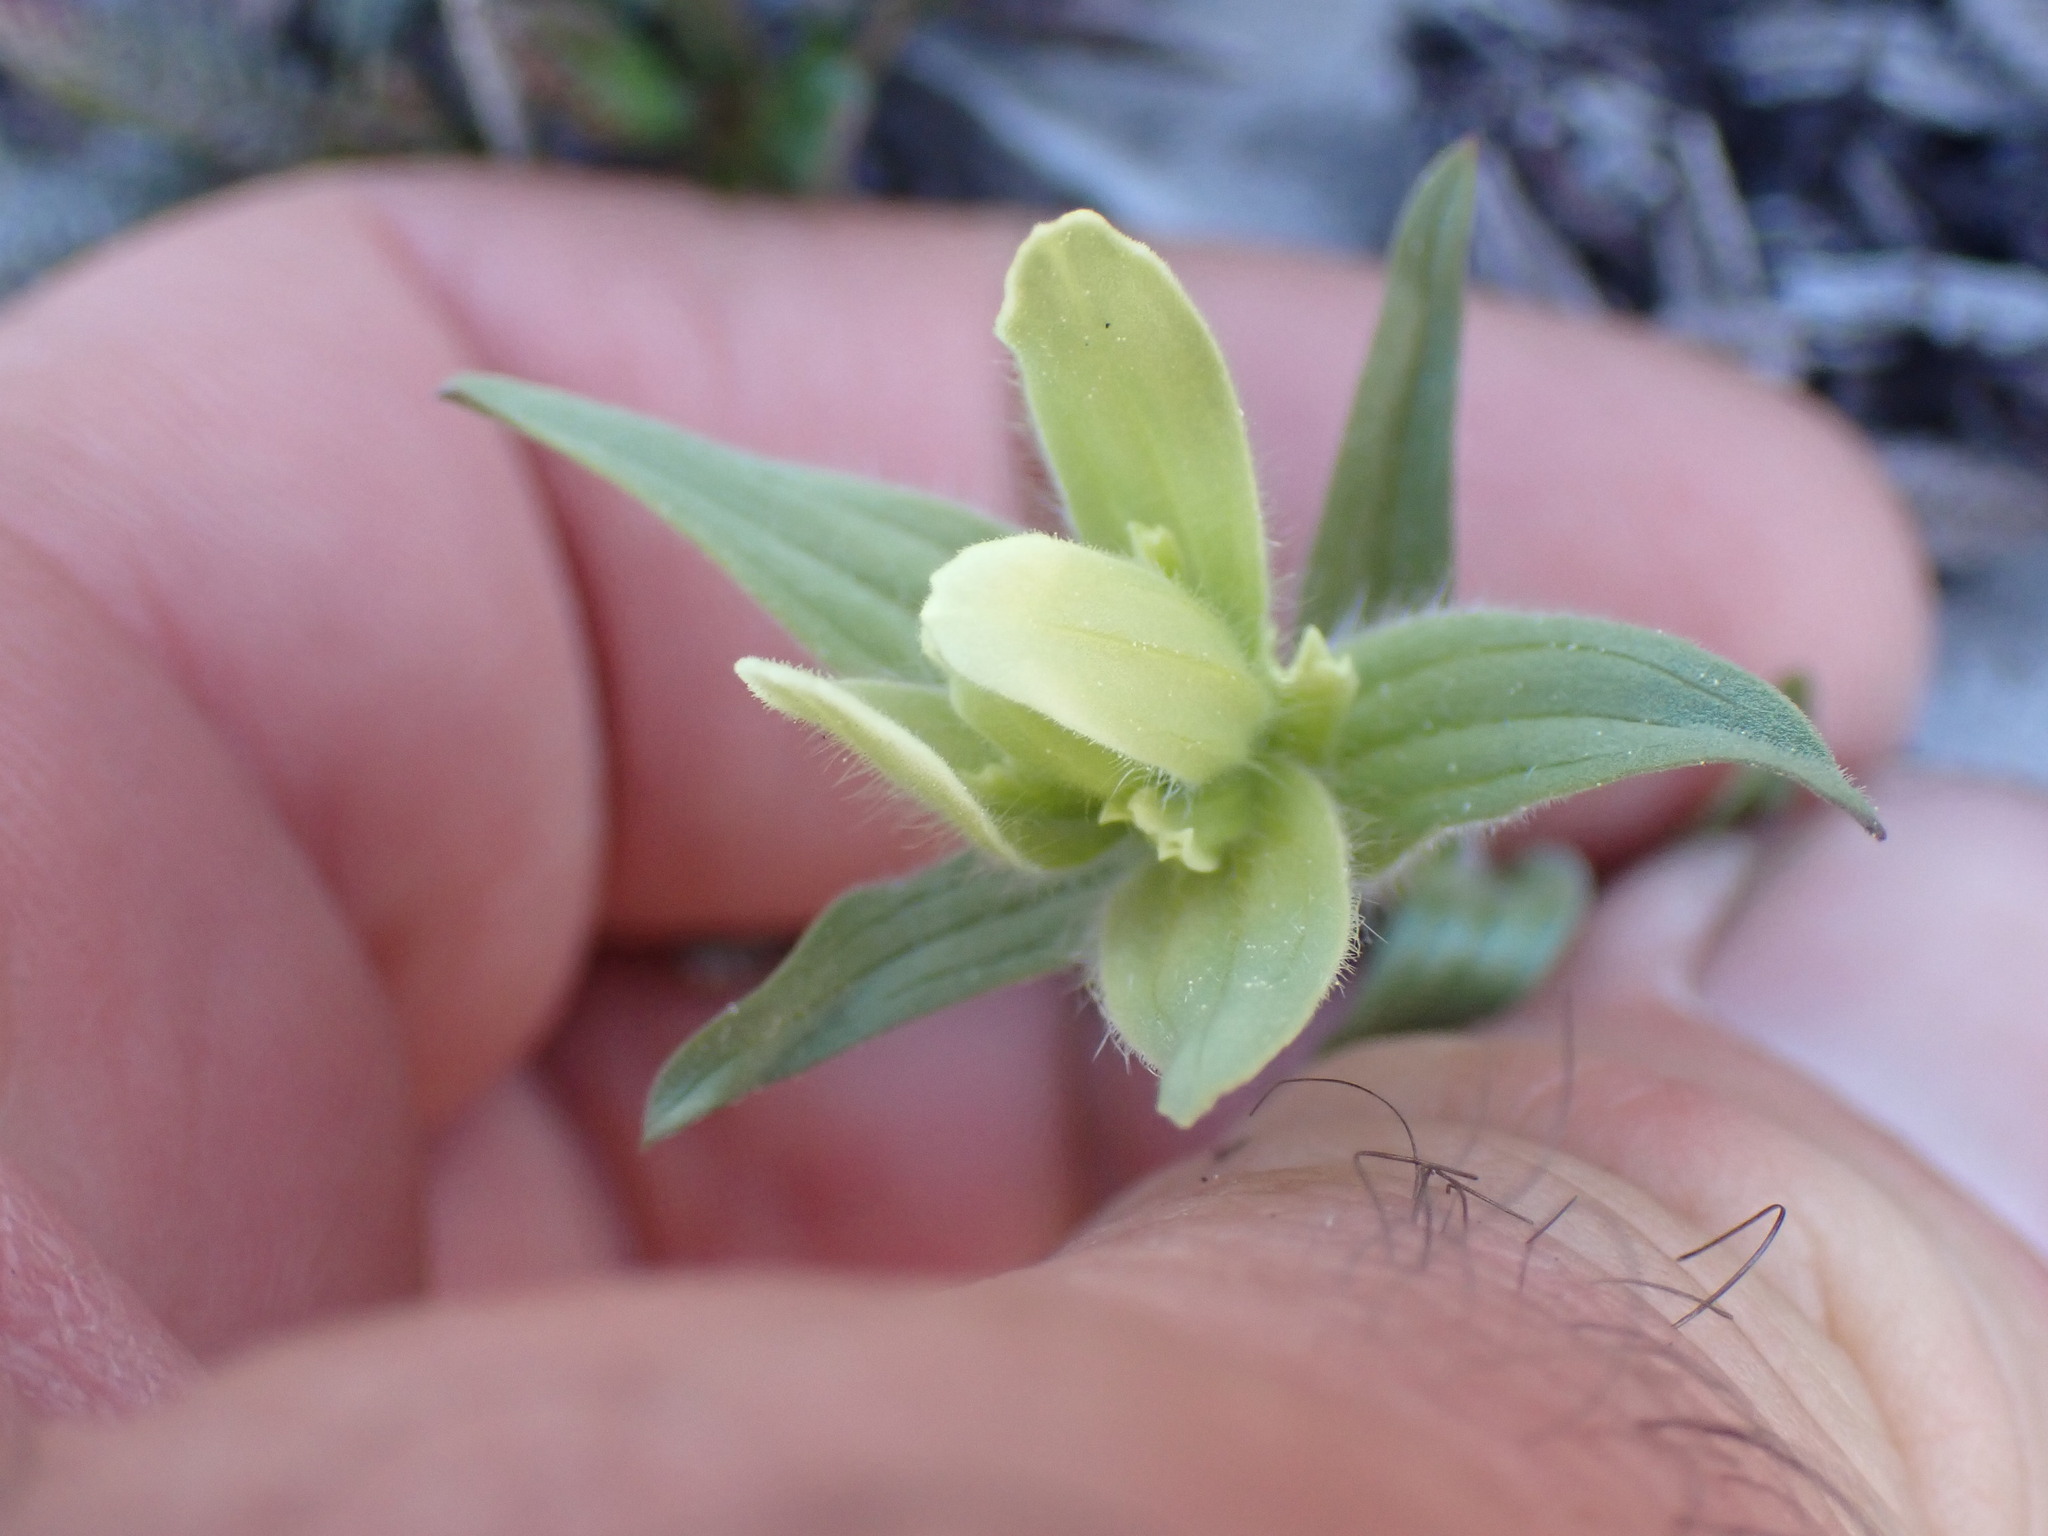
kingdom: Plantae
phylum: Tracheophyta
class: Magnoliopsida
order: Lamiales
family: Orobanchaceae
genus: Castilleja
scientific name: Castilleja occidentalis
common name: Western paintbrush
